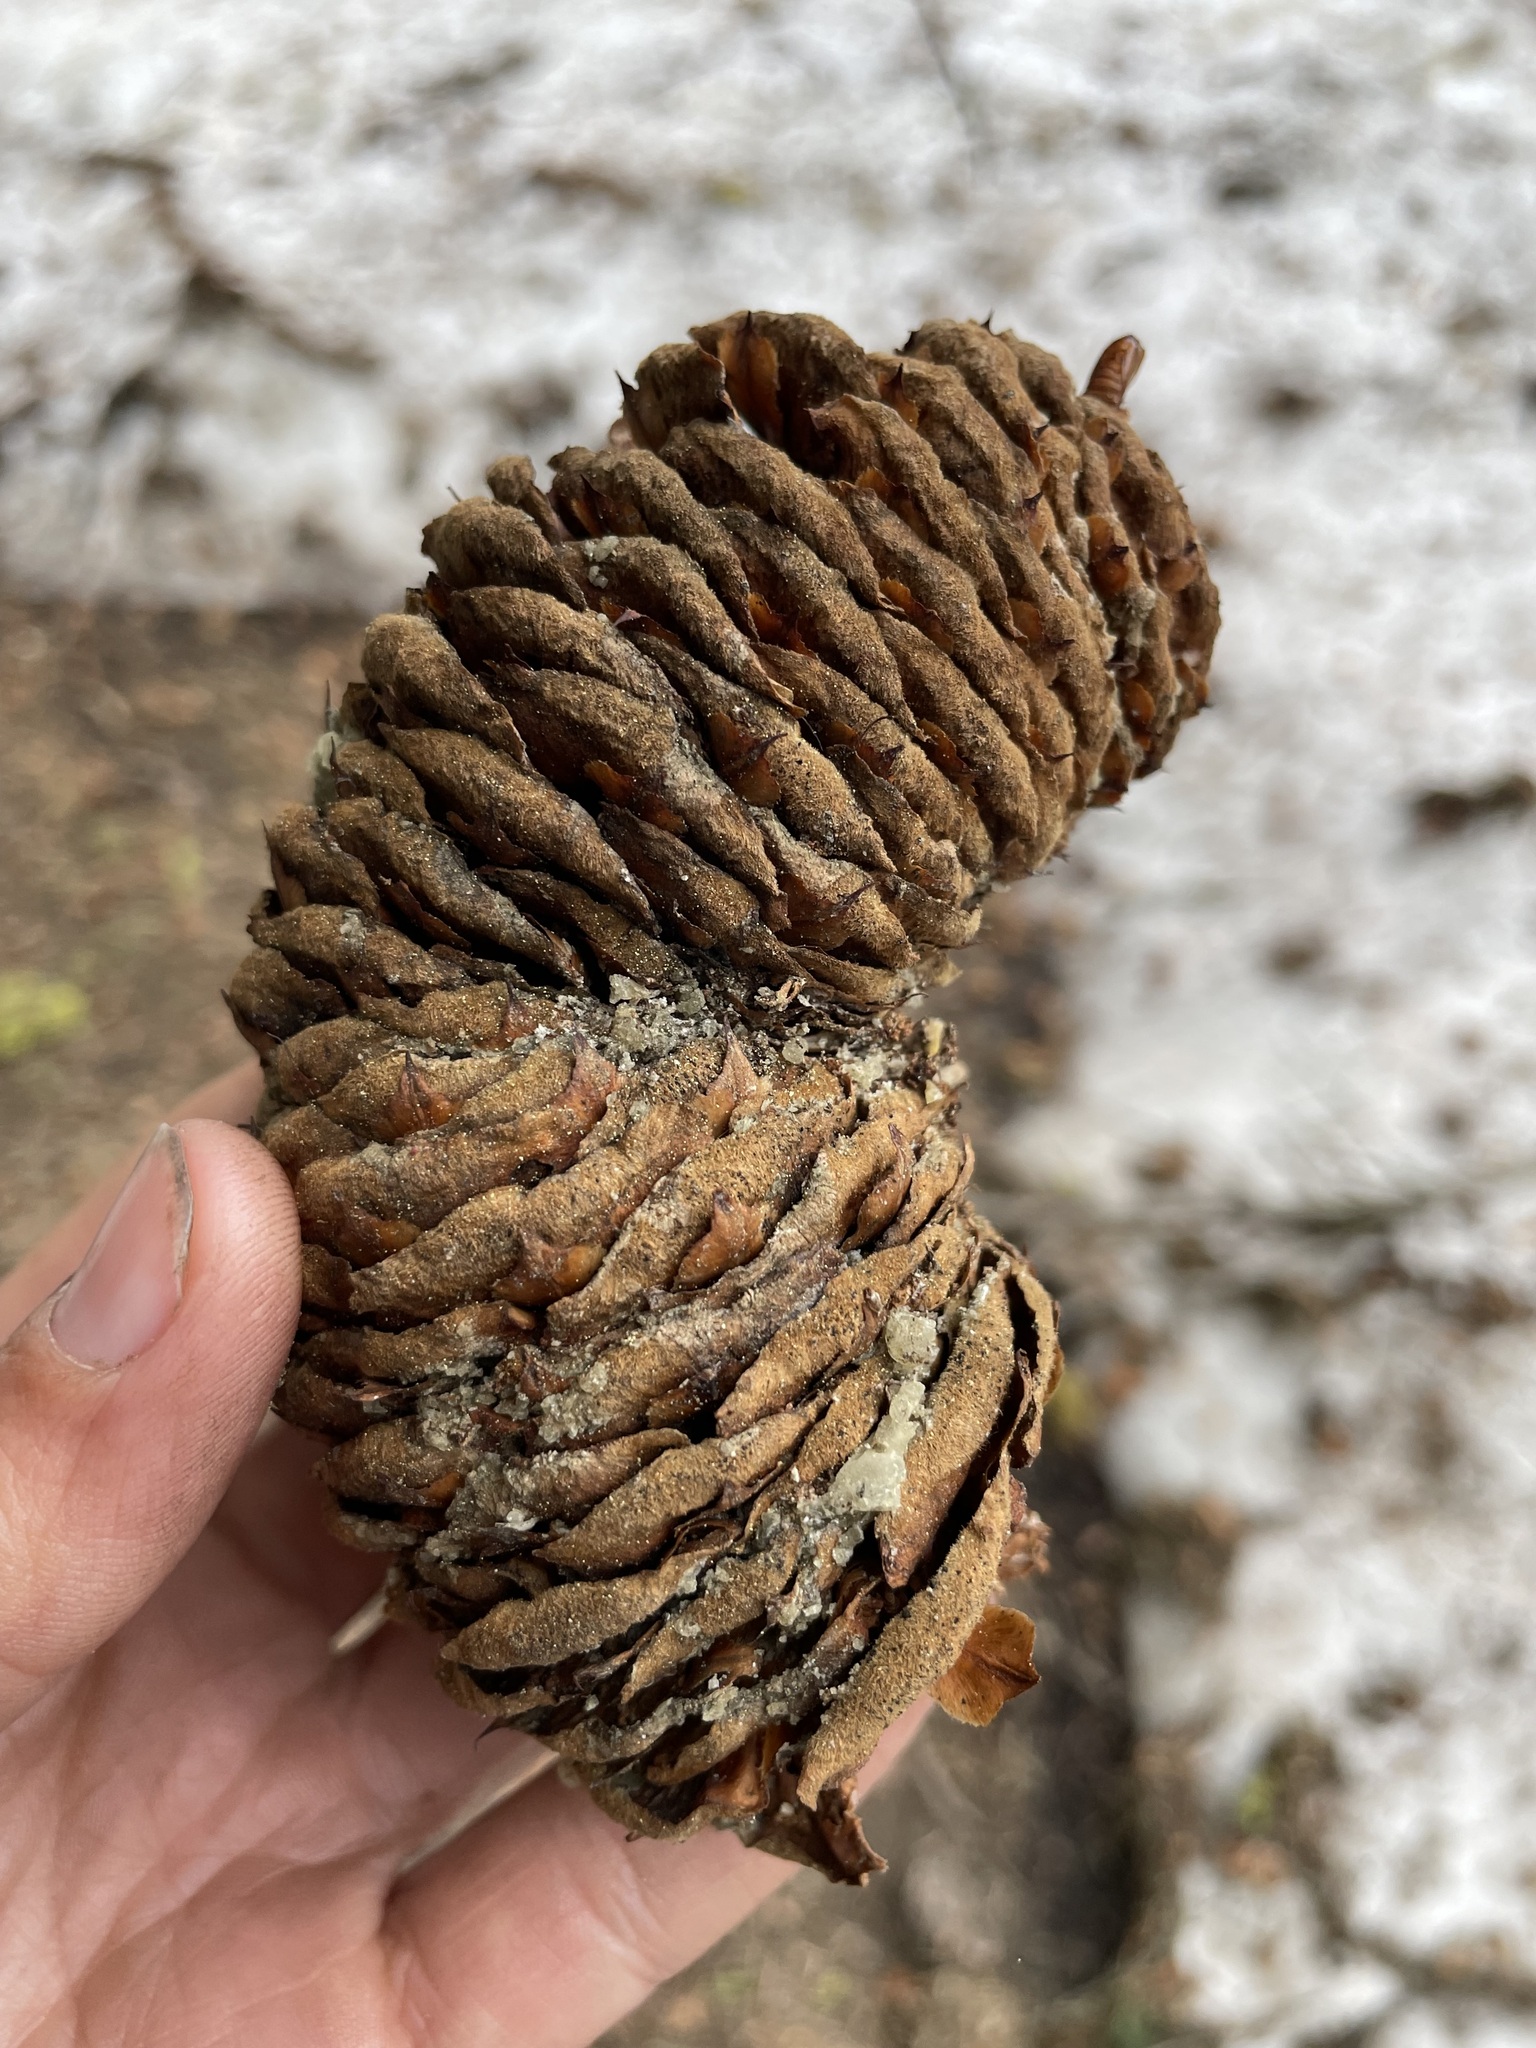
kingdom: Plantae
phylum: Tracheophyta
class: Pinopsida
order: Pinales
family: Pinaceae
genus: Abies
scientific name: Abies magnifica bis
